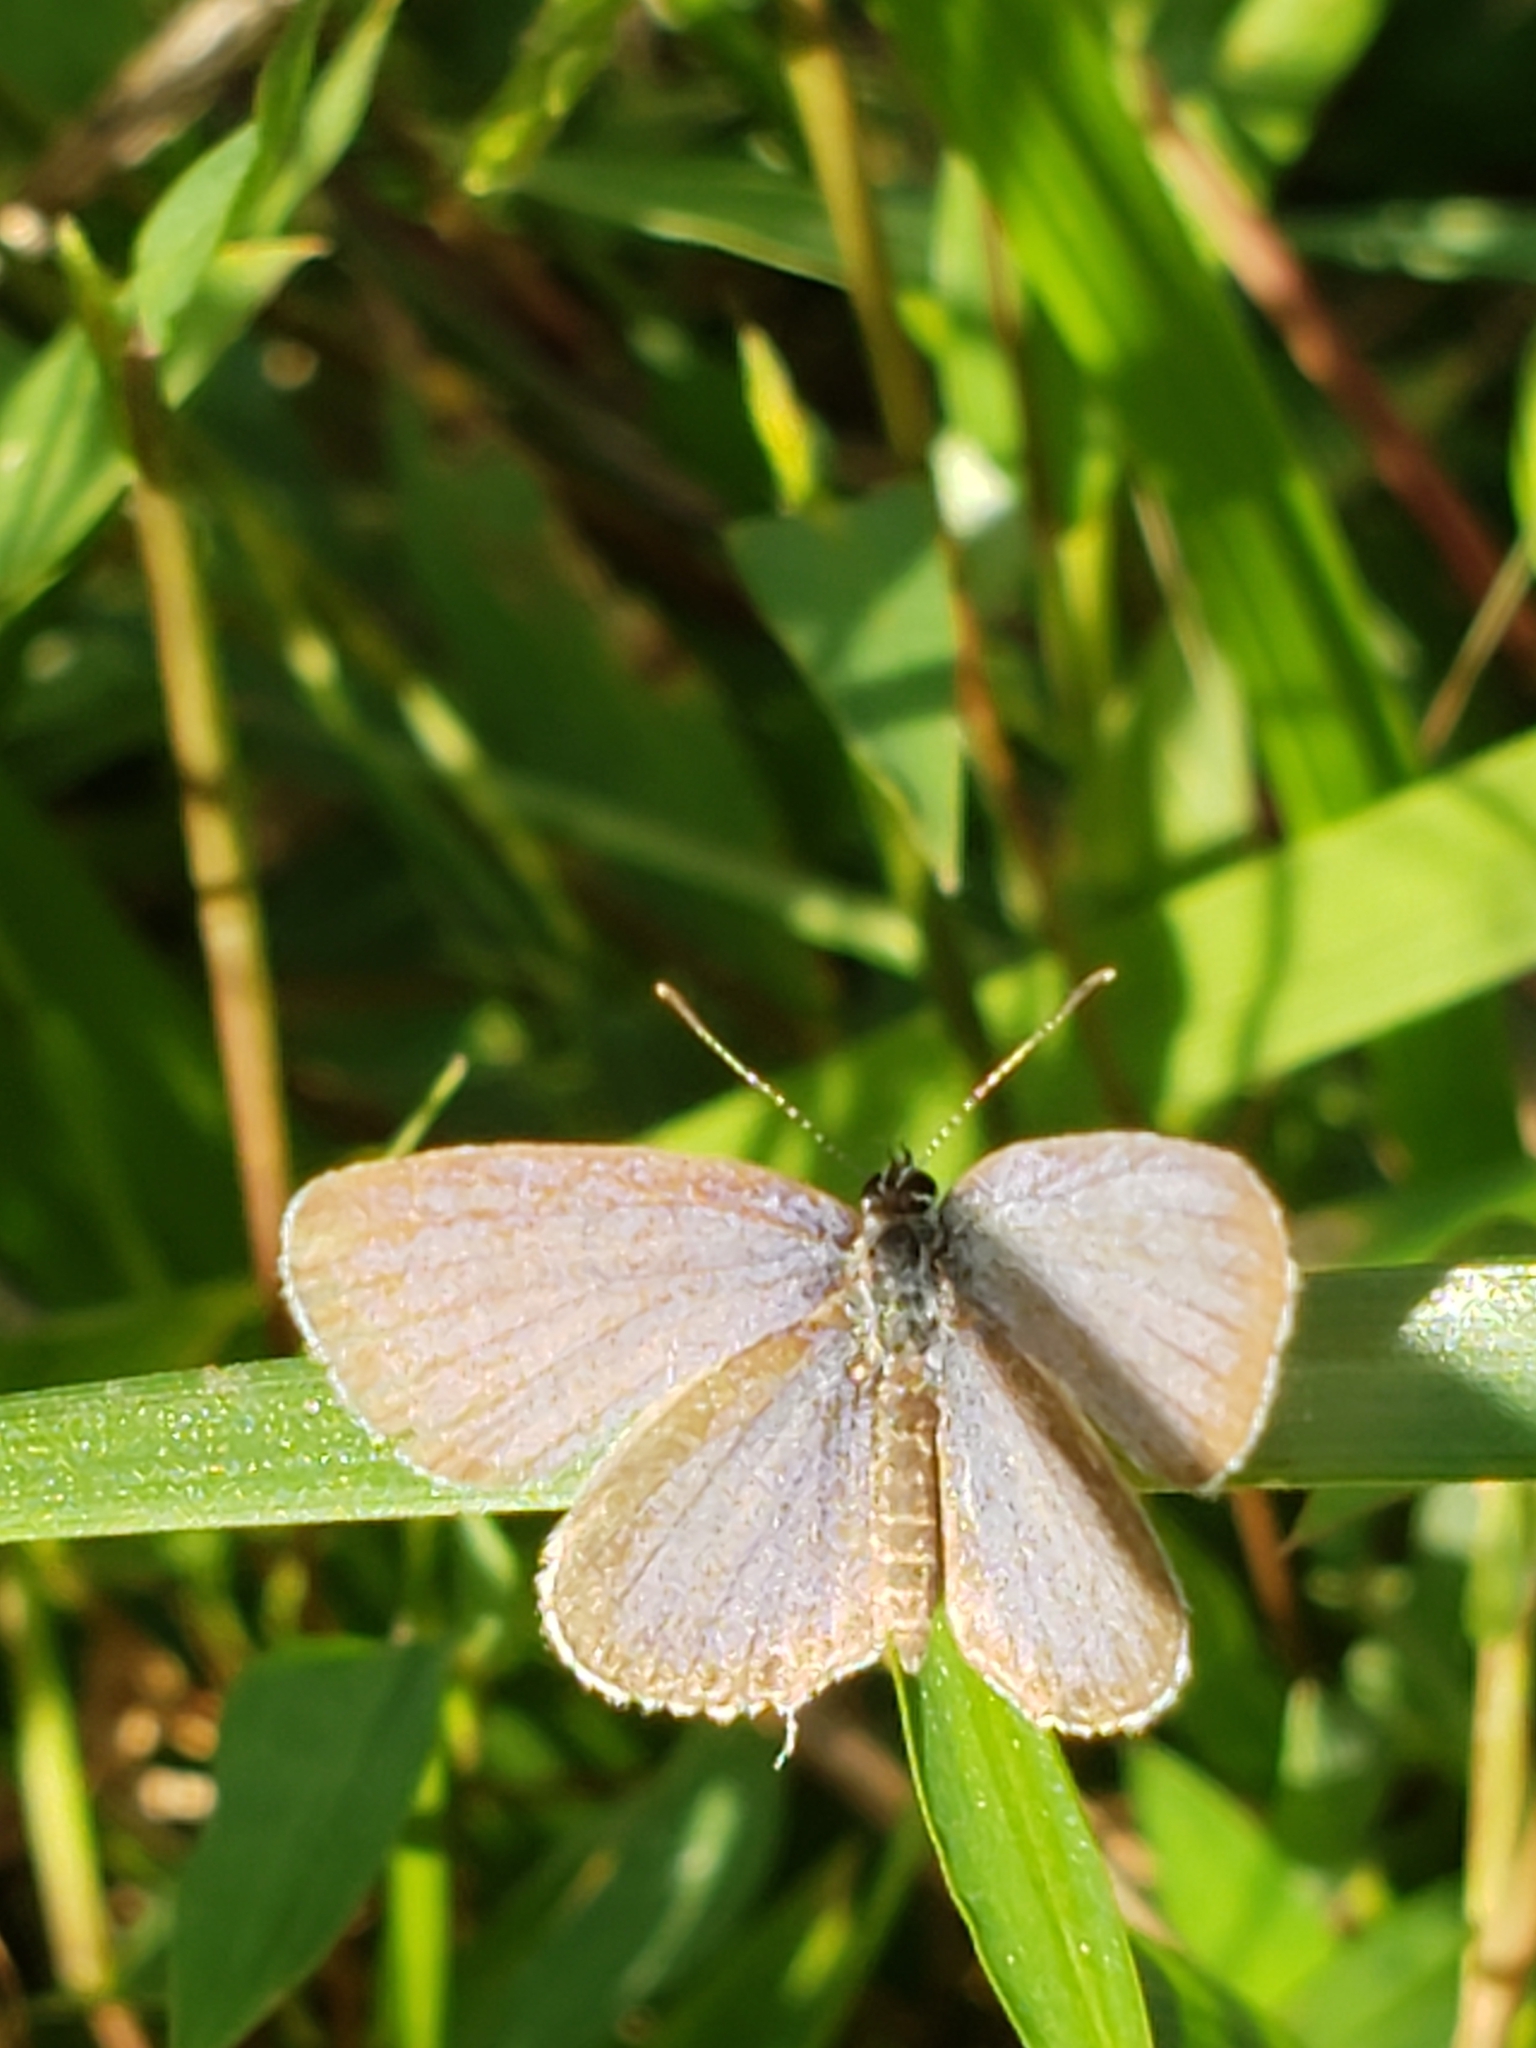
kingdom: Animalia
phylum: Arthropoda
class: Insecta
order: Lepidoptera
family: Lycaenidae
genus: Elkalyce
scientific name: Elkalyce comyntas
